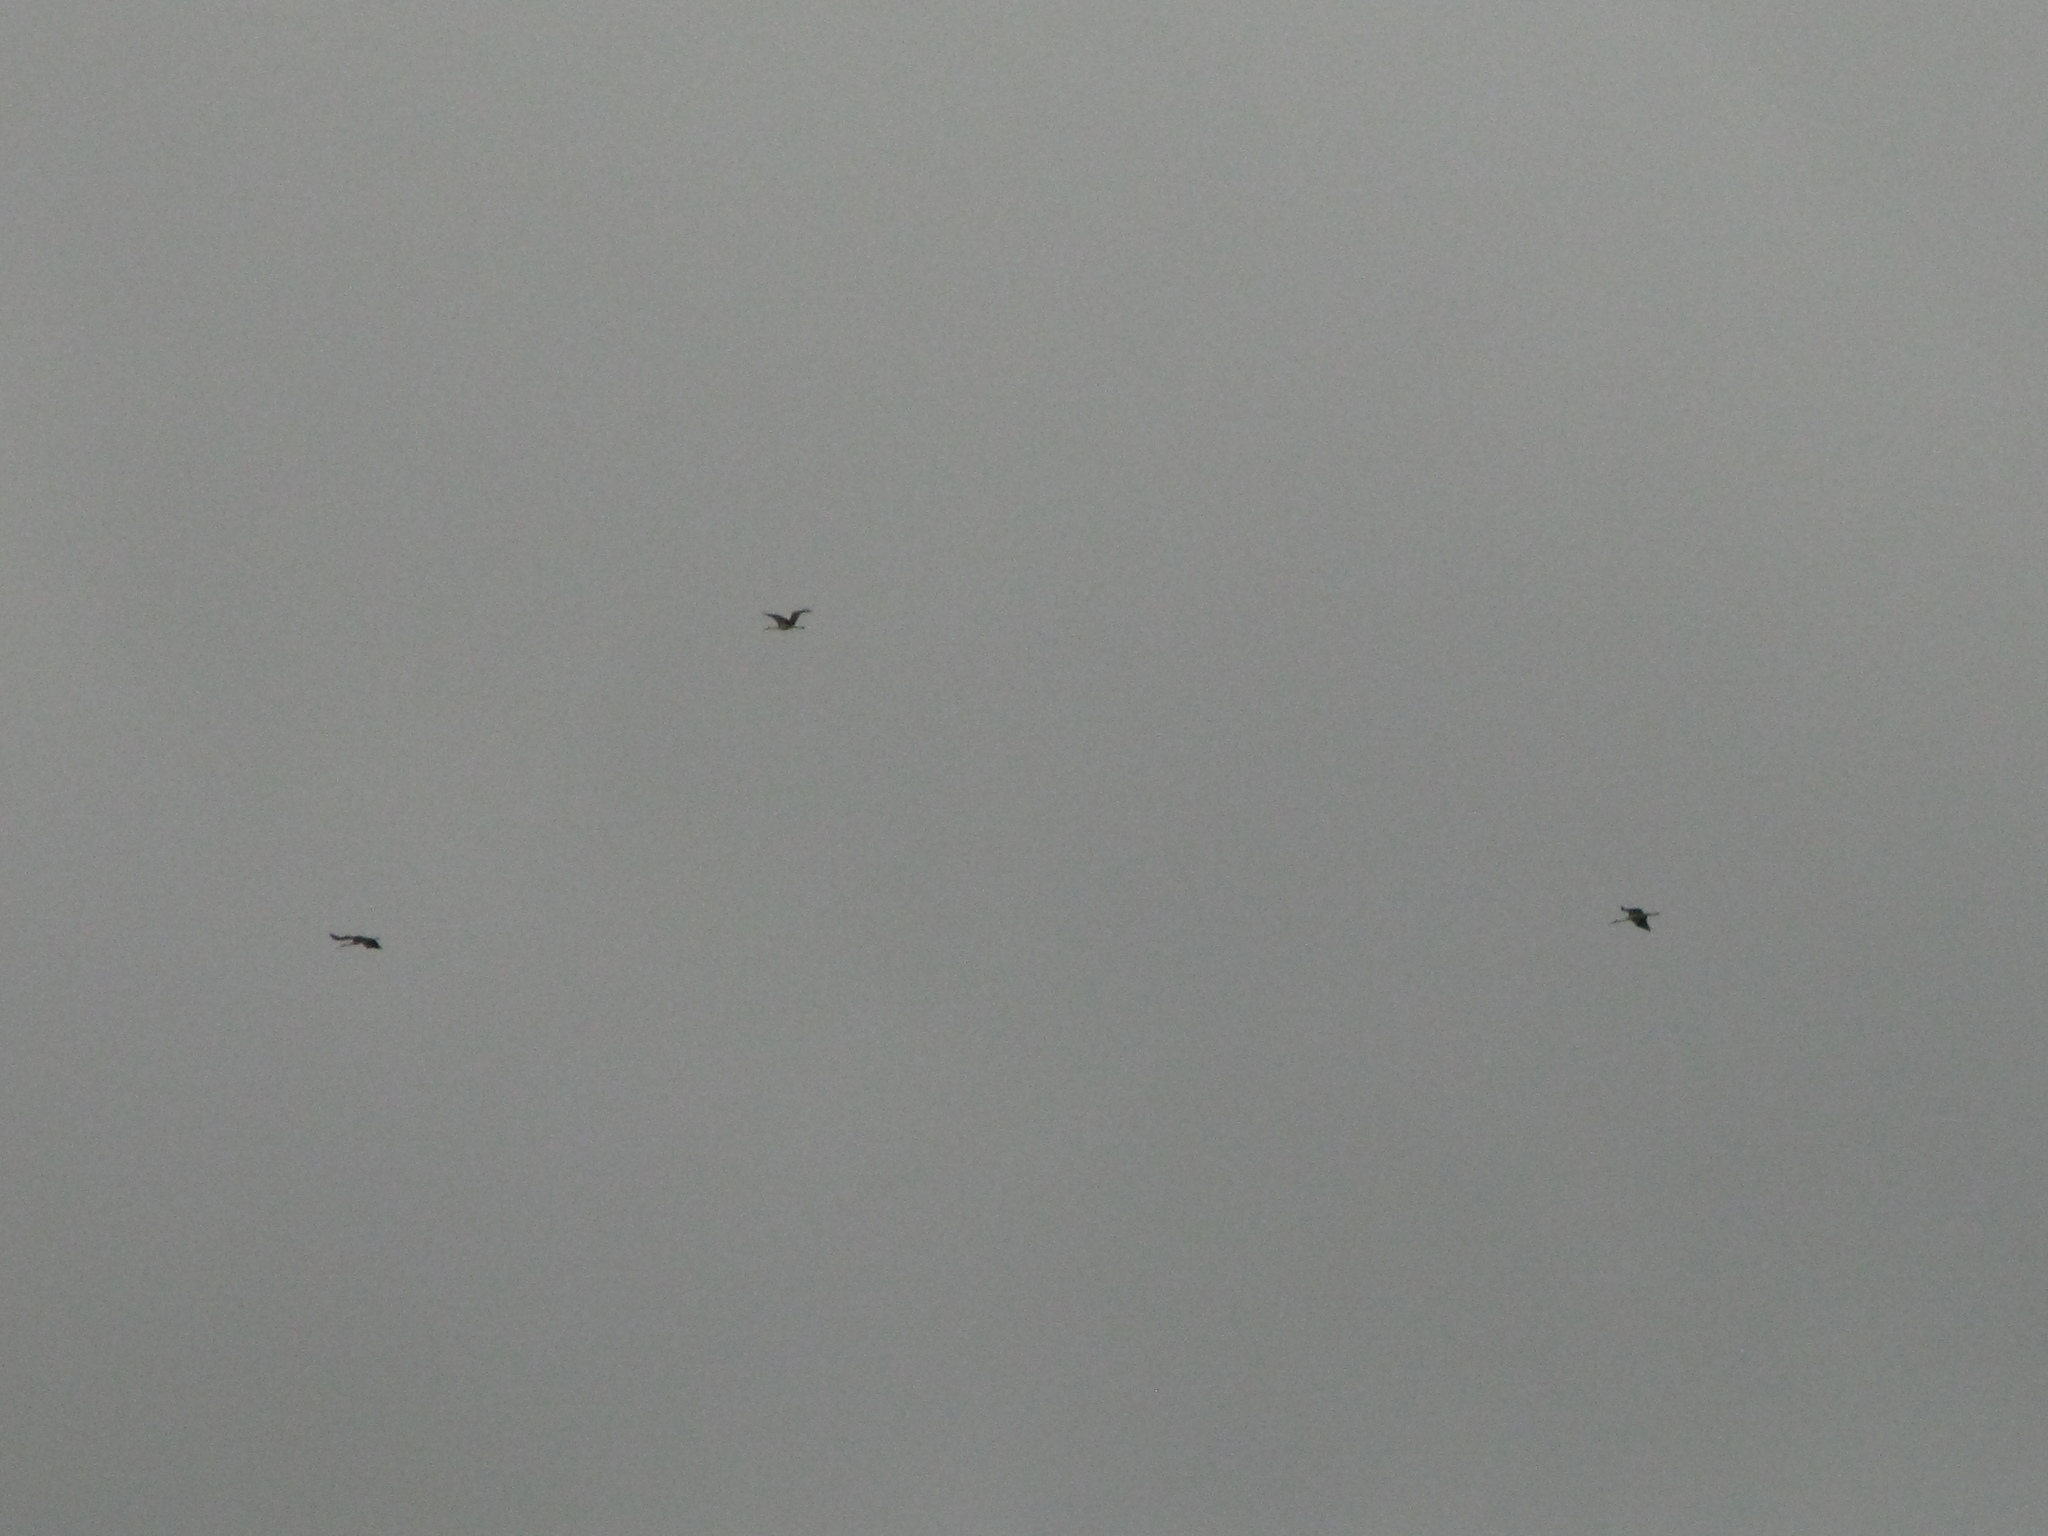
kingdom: Animalia
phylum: Chordata
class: Aves
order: Ciconiiformes
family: Ciconiidae
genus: Ciconia
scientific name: Ciconia ciconia
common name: White stork
